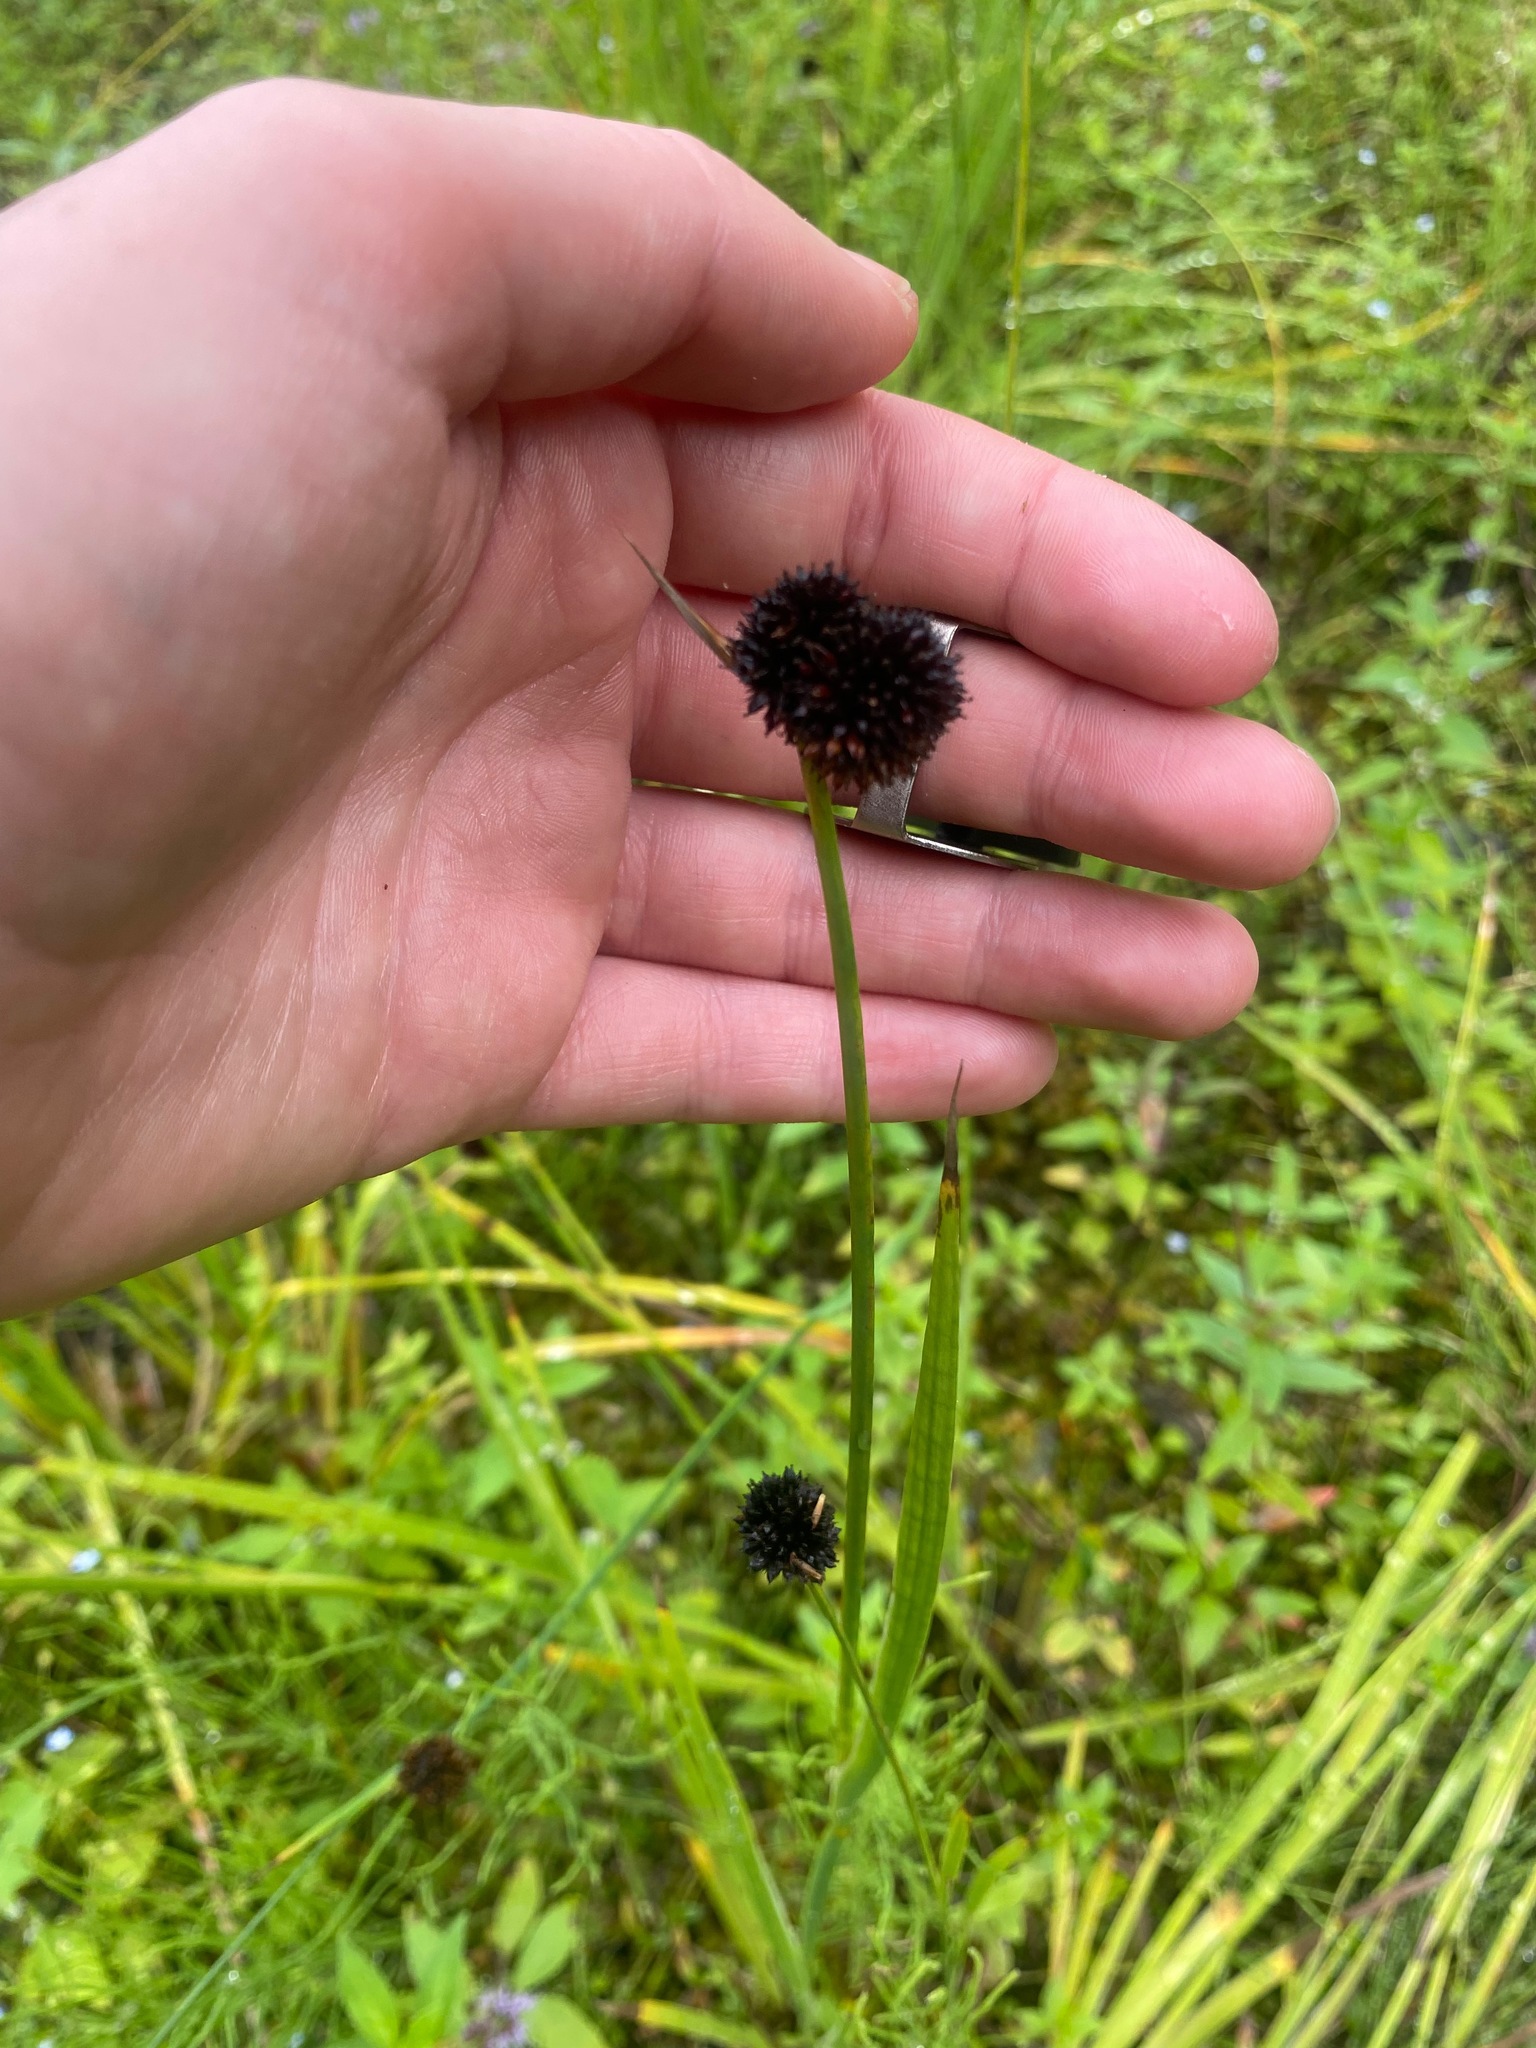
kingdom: Plantae
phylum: Tracheophyta
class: Liliopsida
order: Poales
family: Juncaceae
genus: Juncus
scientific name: Juncus ensifolius
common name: Sword-leaved rush
